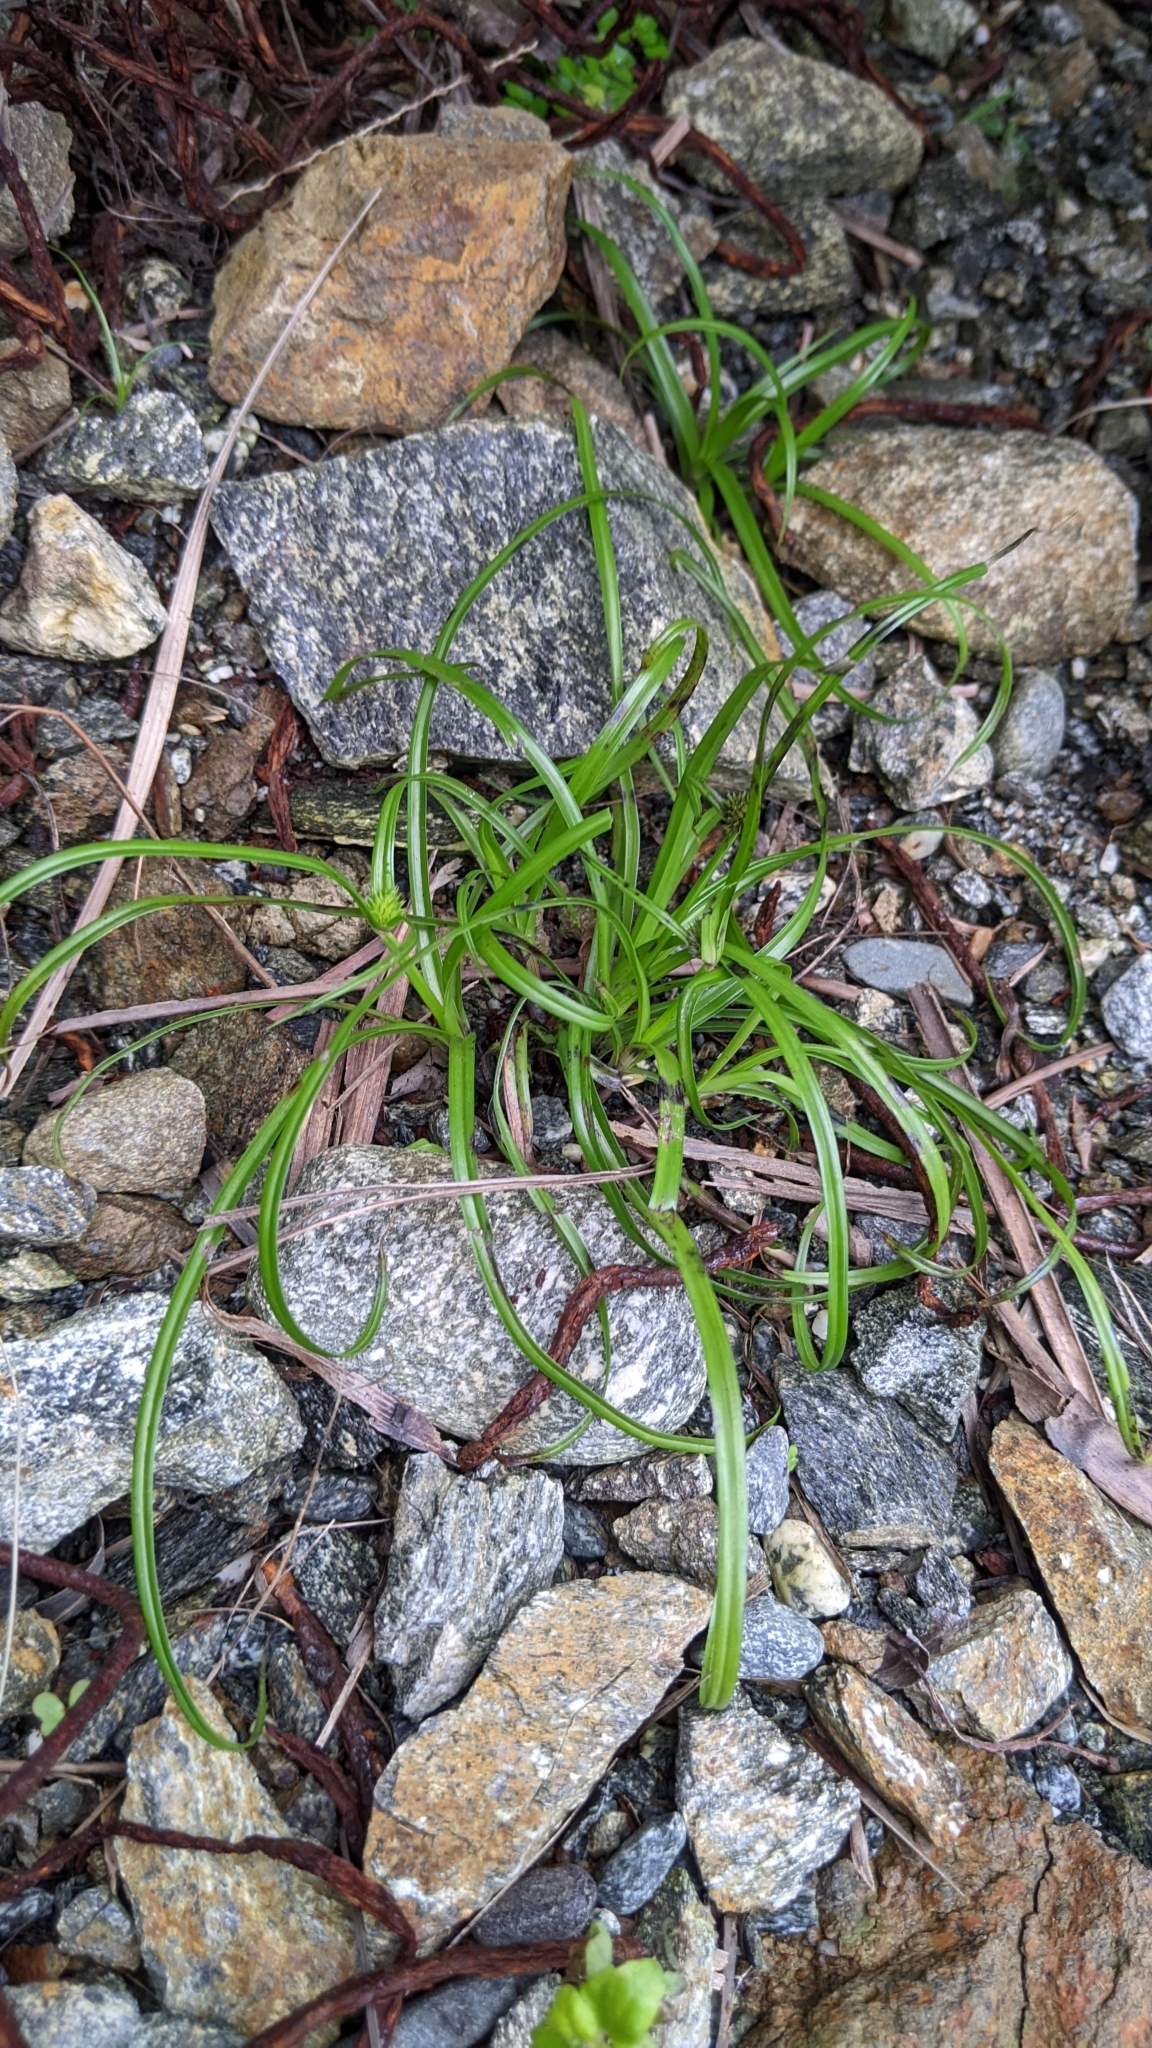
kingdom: Plantae
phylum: Tracheophyta
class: Liliopsida
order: Poales
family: Cyperaceae
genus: Cyperus
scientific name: Cyperus brevifolius
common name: Globe kyllinga
